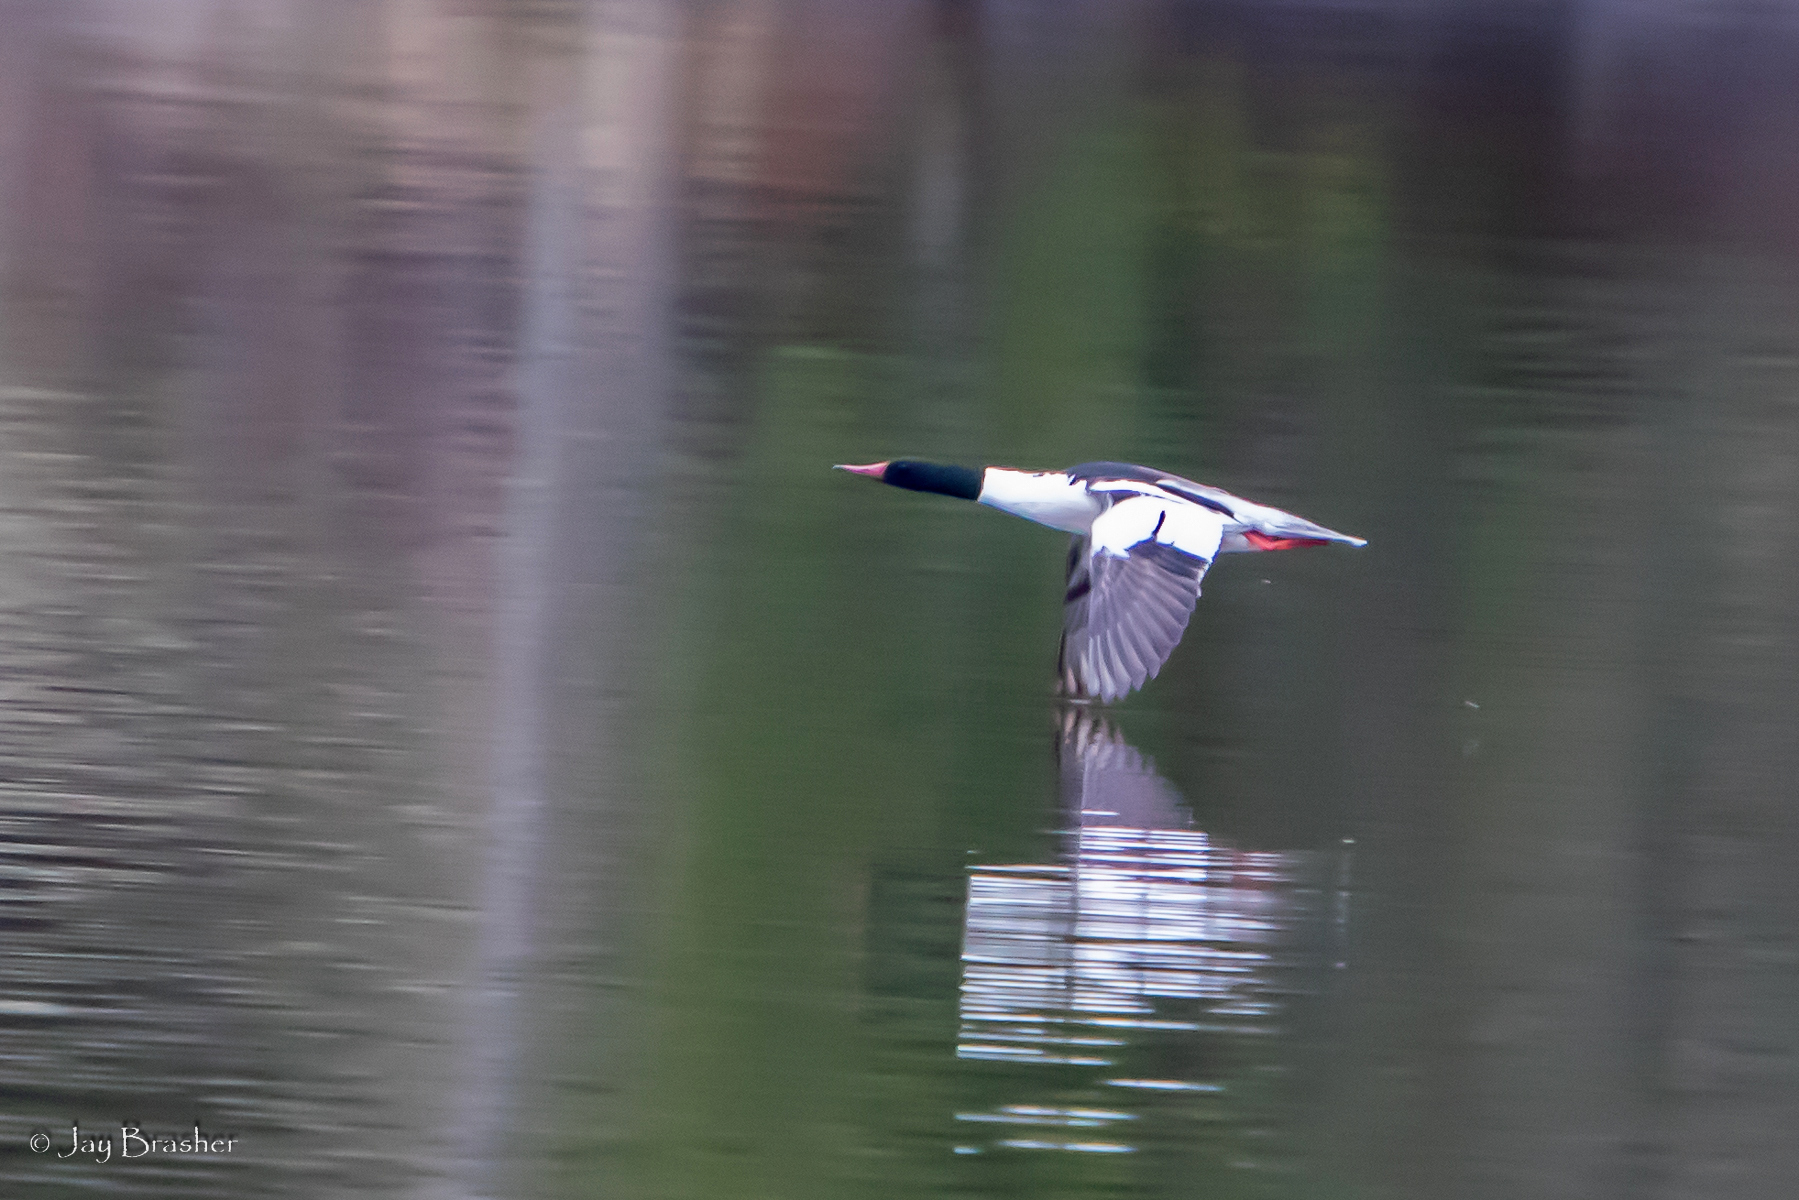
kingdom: Animalia
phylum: Chordata
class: Aves
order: Anseriformes
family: Anatidae
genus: Mergus
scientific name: Mergus merganser
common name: Common merganser
